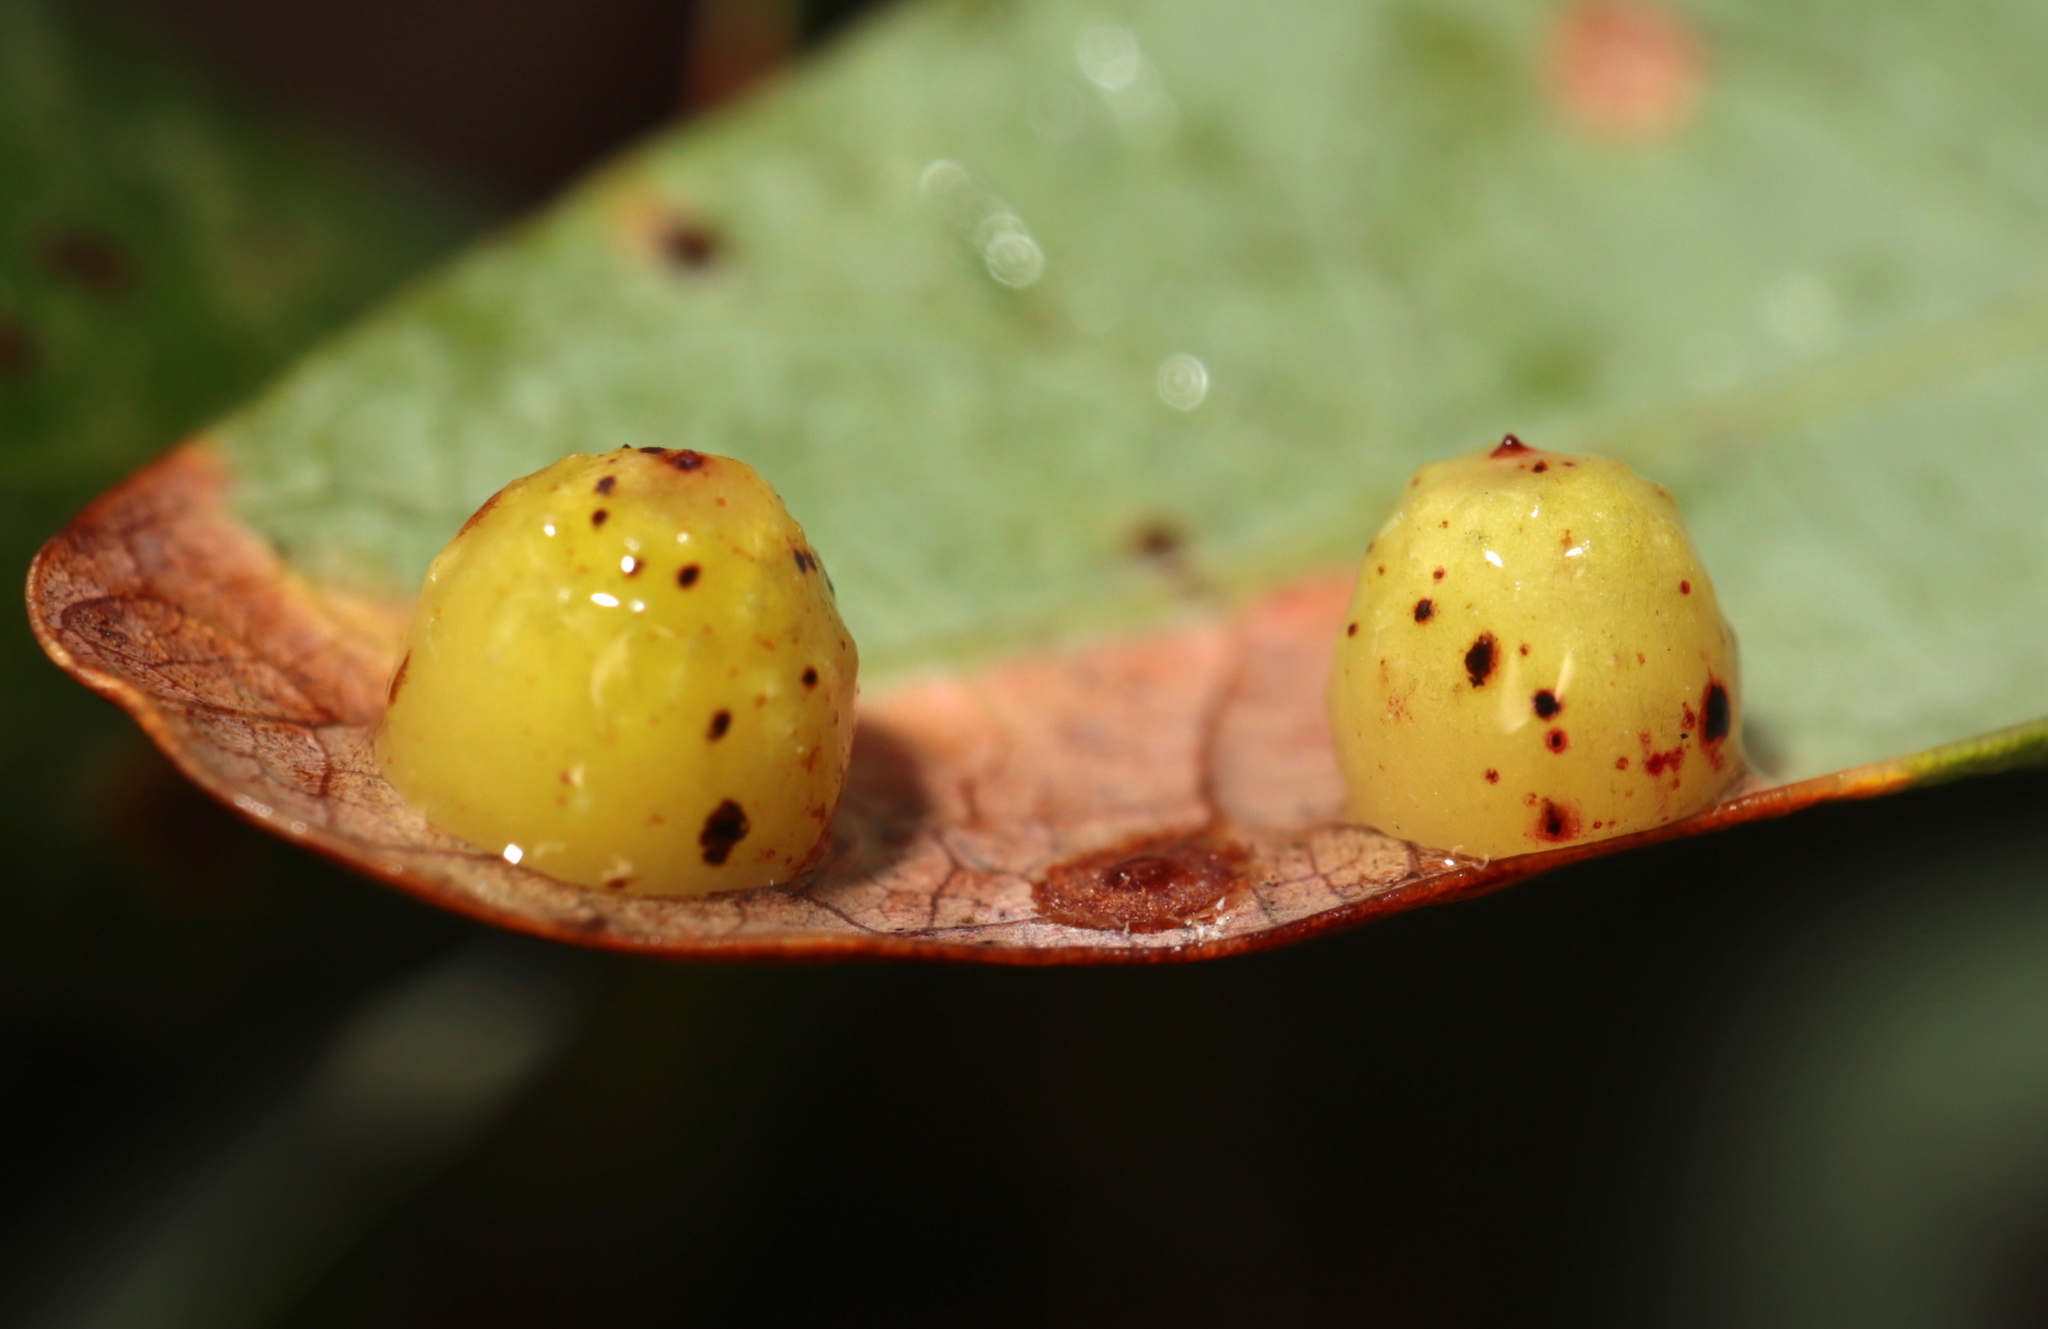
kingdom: Animalia
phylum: Arthropoda
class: Insecta
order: Hymenoptera
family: Cynipidae
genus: Andricus
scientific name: Andricus
